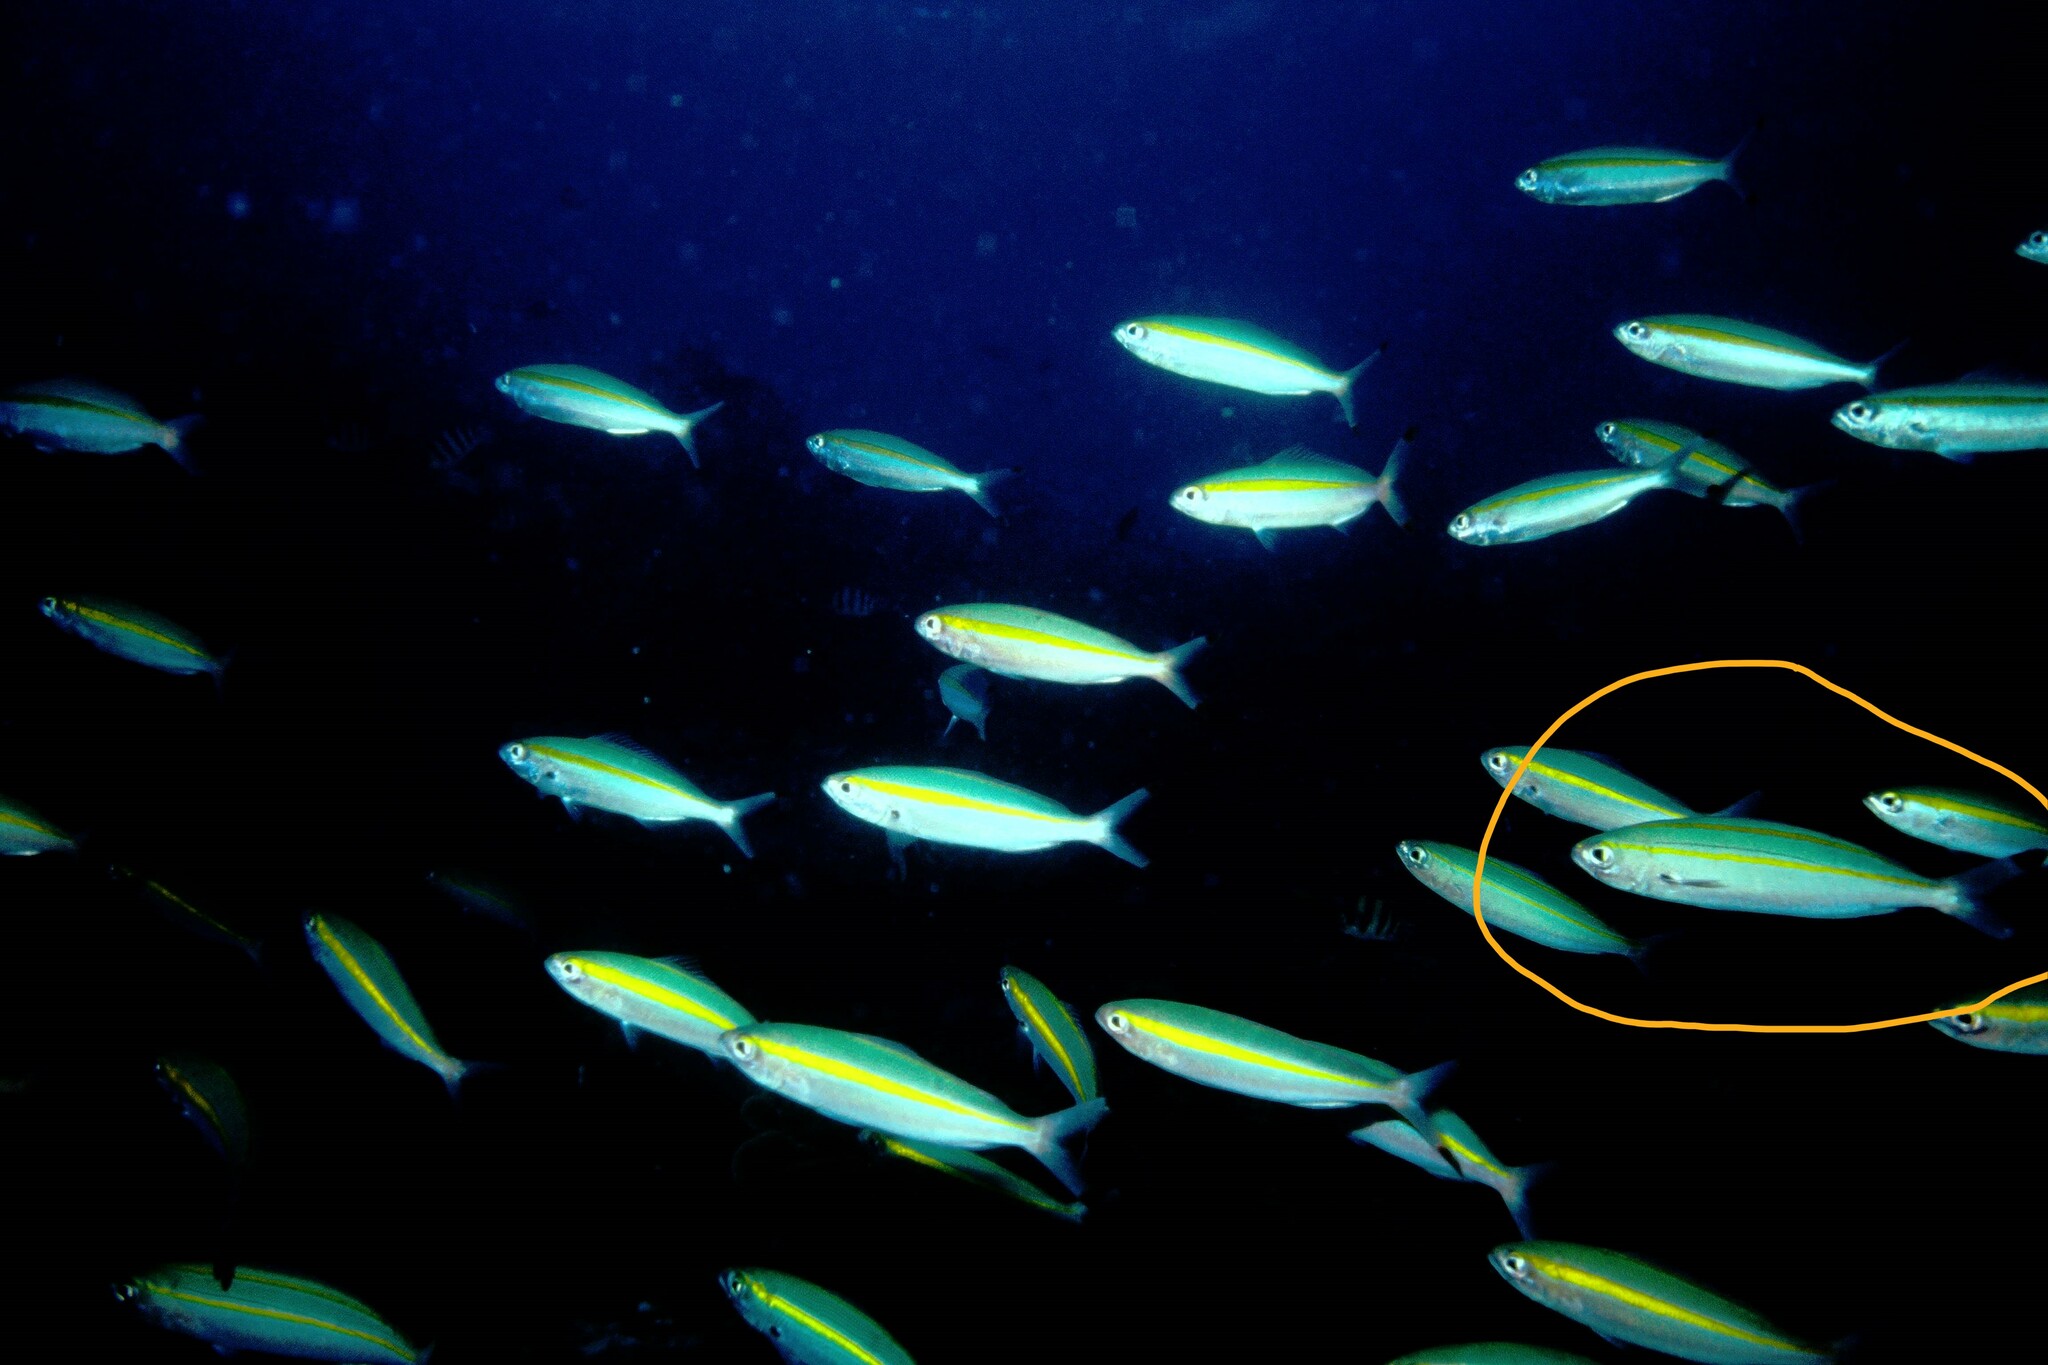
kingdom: Animalia
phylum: Chordata
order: Perciformes
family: Caesionidae
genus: Pterocaesio
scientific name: Pterocaesio digramma
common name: Double-lined fusilier
